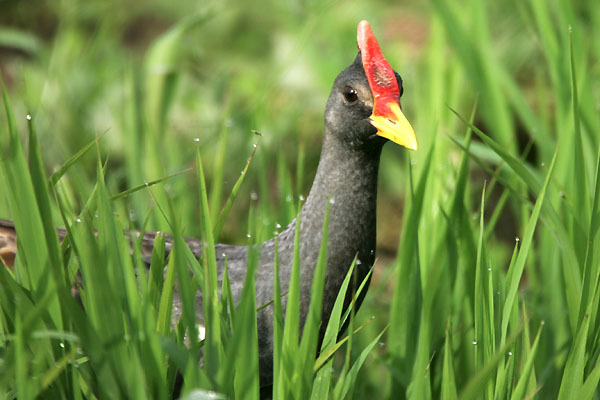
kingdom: Animalia
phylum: Chordata
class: Aves
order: Gruiformes
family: Rallidae
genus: Gallicrex
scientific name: Gallicrex cinerea
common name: Watercock
